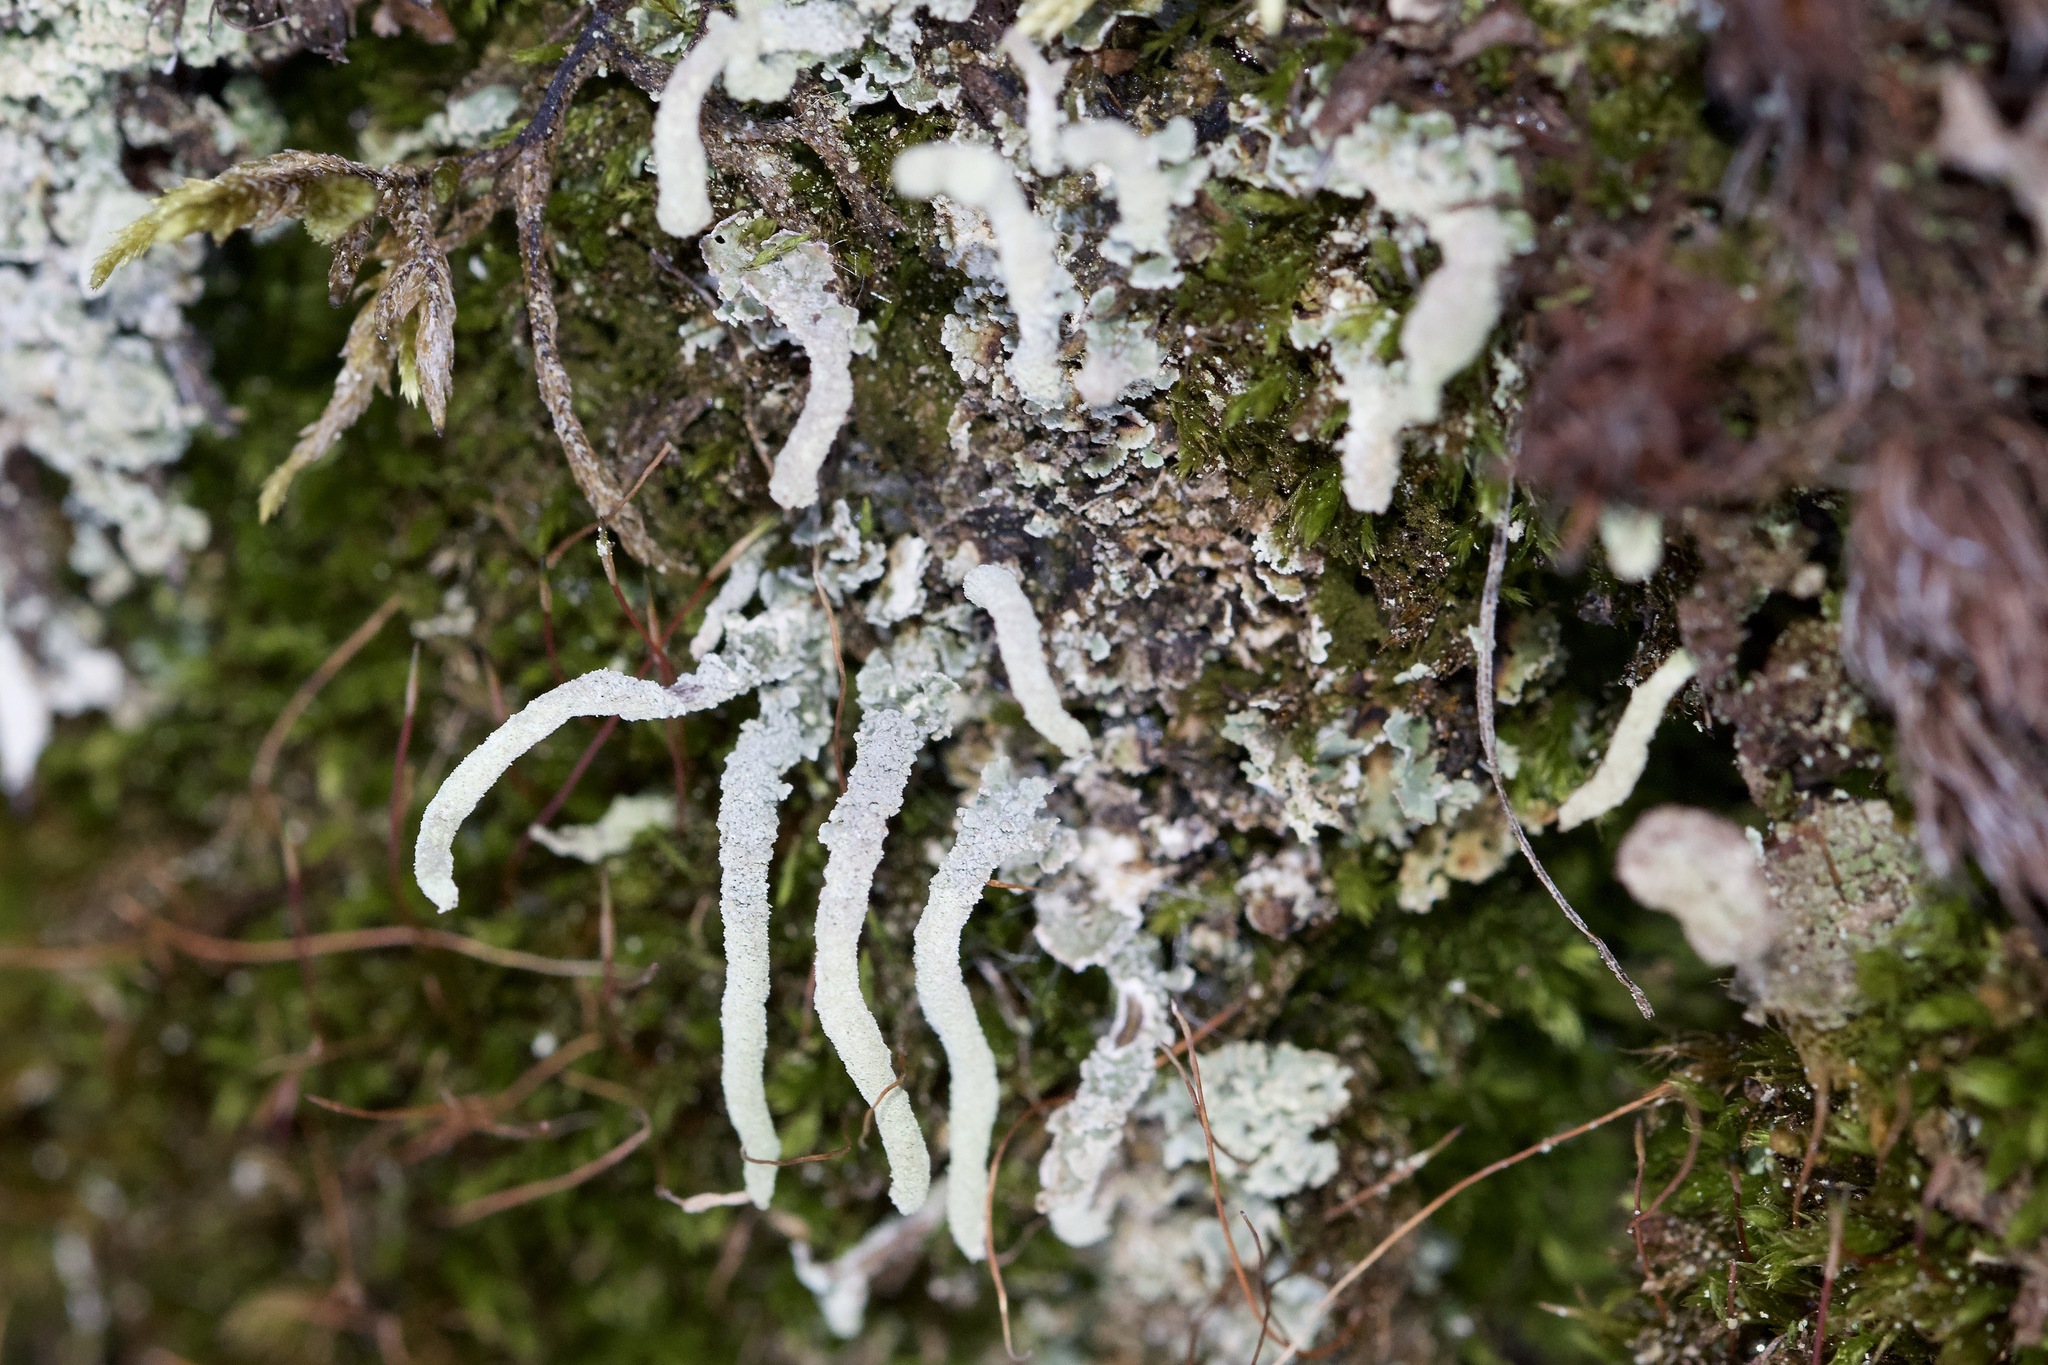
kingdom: Fungi
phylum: Ascomycota
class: Lecanoromycetes
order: Lecanorales
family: Cladoniaceae
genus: Cladonia
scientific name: Cladonia coniocraea
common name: Common powderhorn
